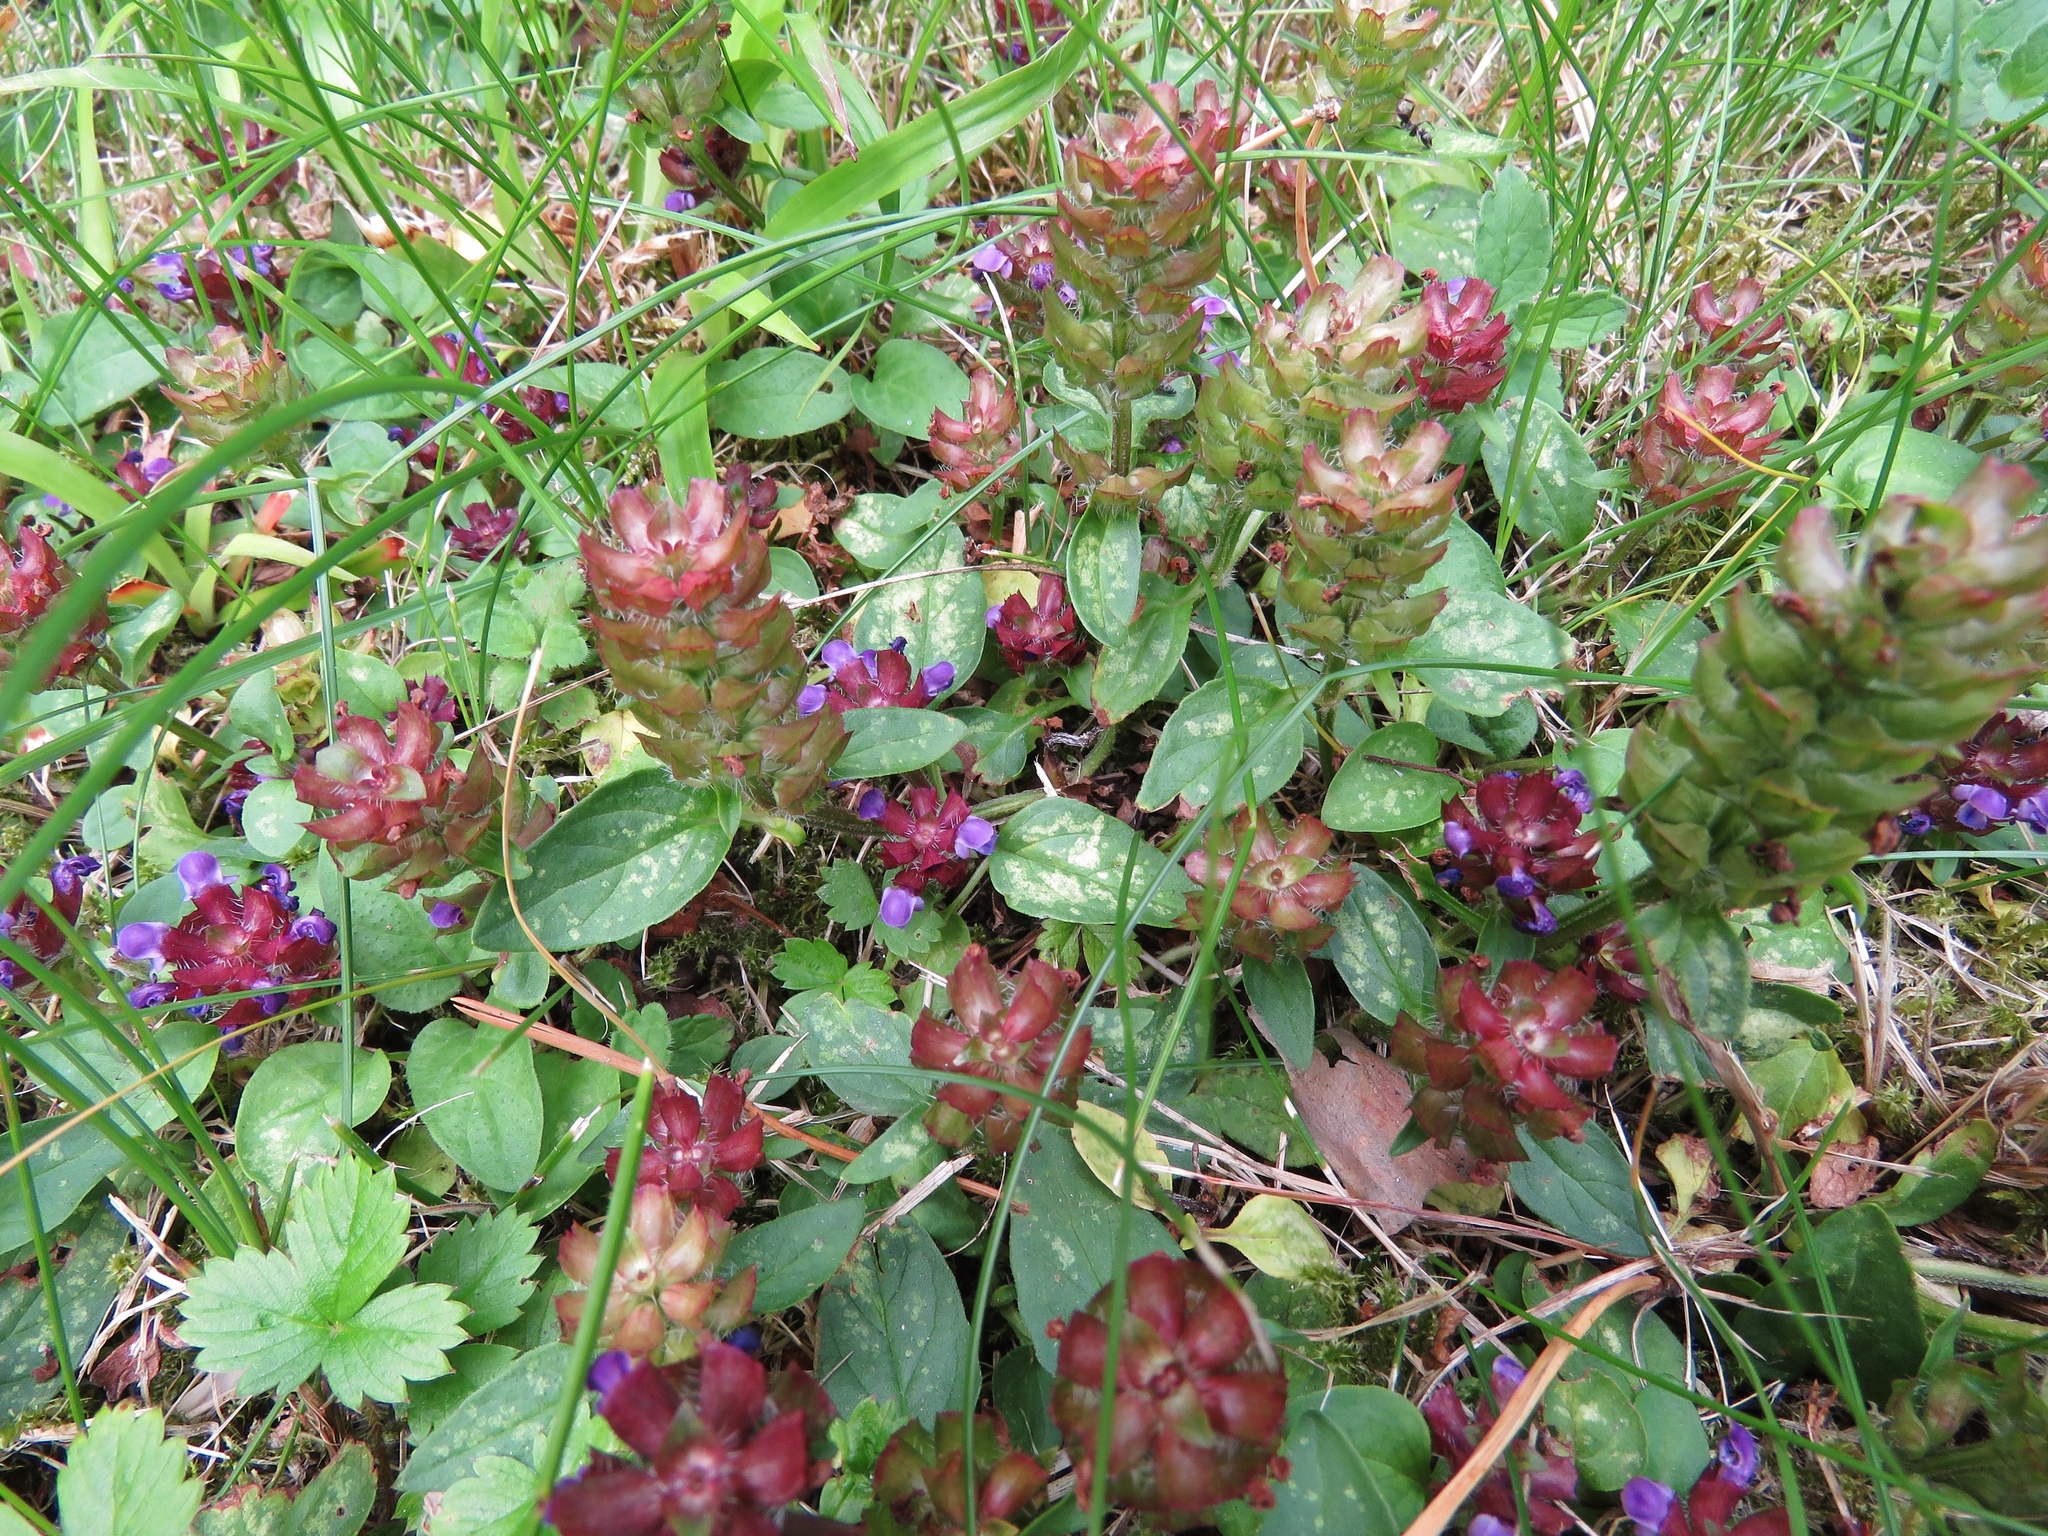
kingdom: Plantae
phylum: Tracheophyta
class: Magnoliopsida
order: Lamiales
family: Lamiaceae
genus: Prunella
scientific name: Prunella vulgaris
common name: Heal-all
